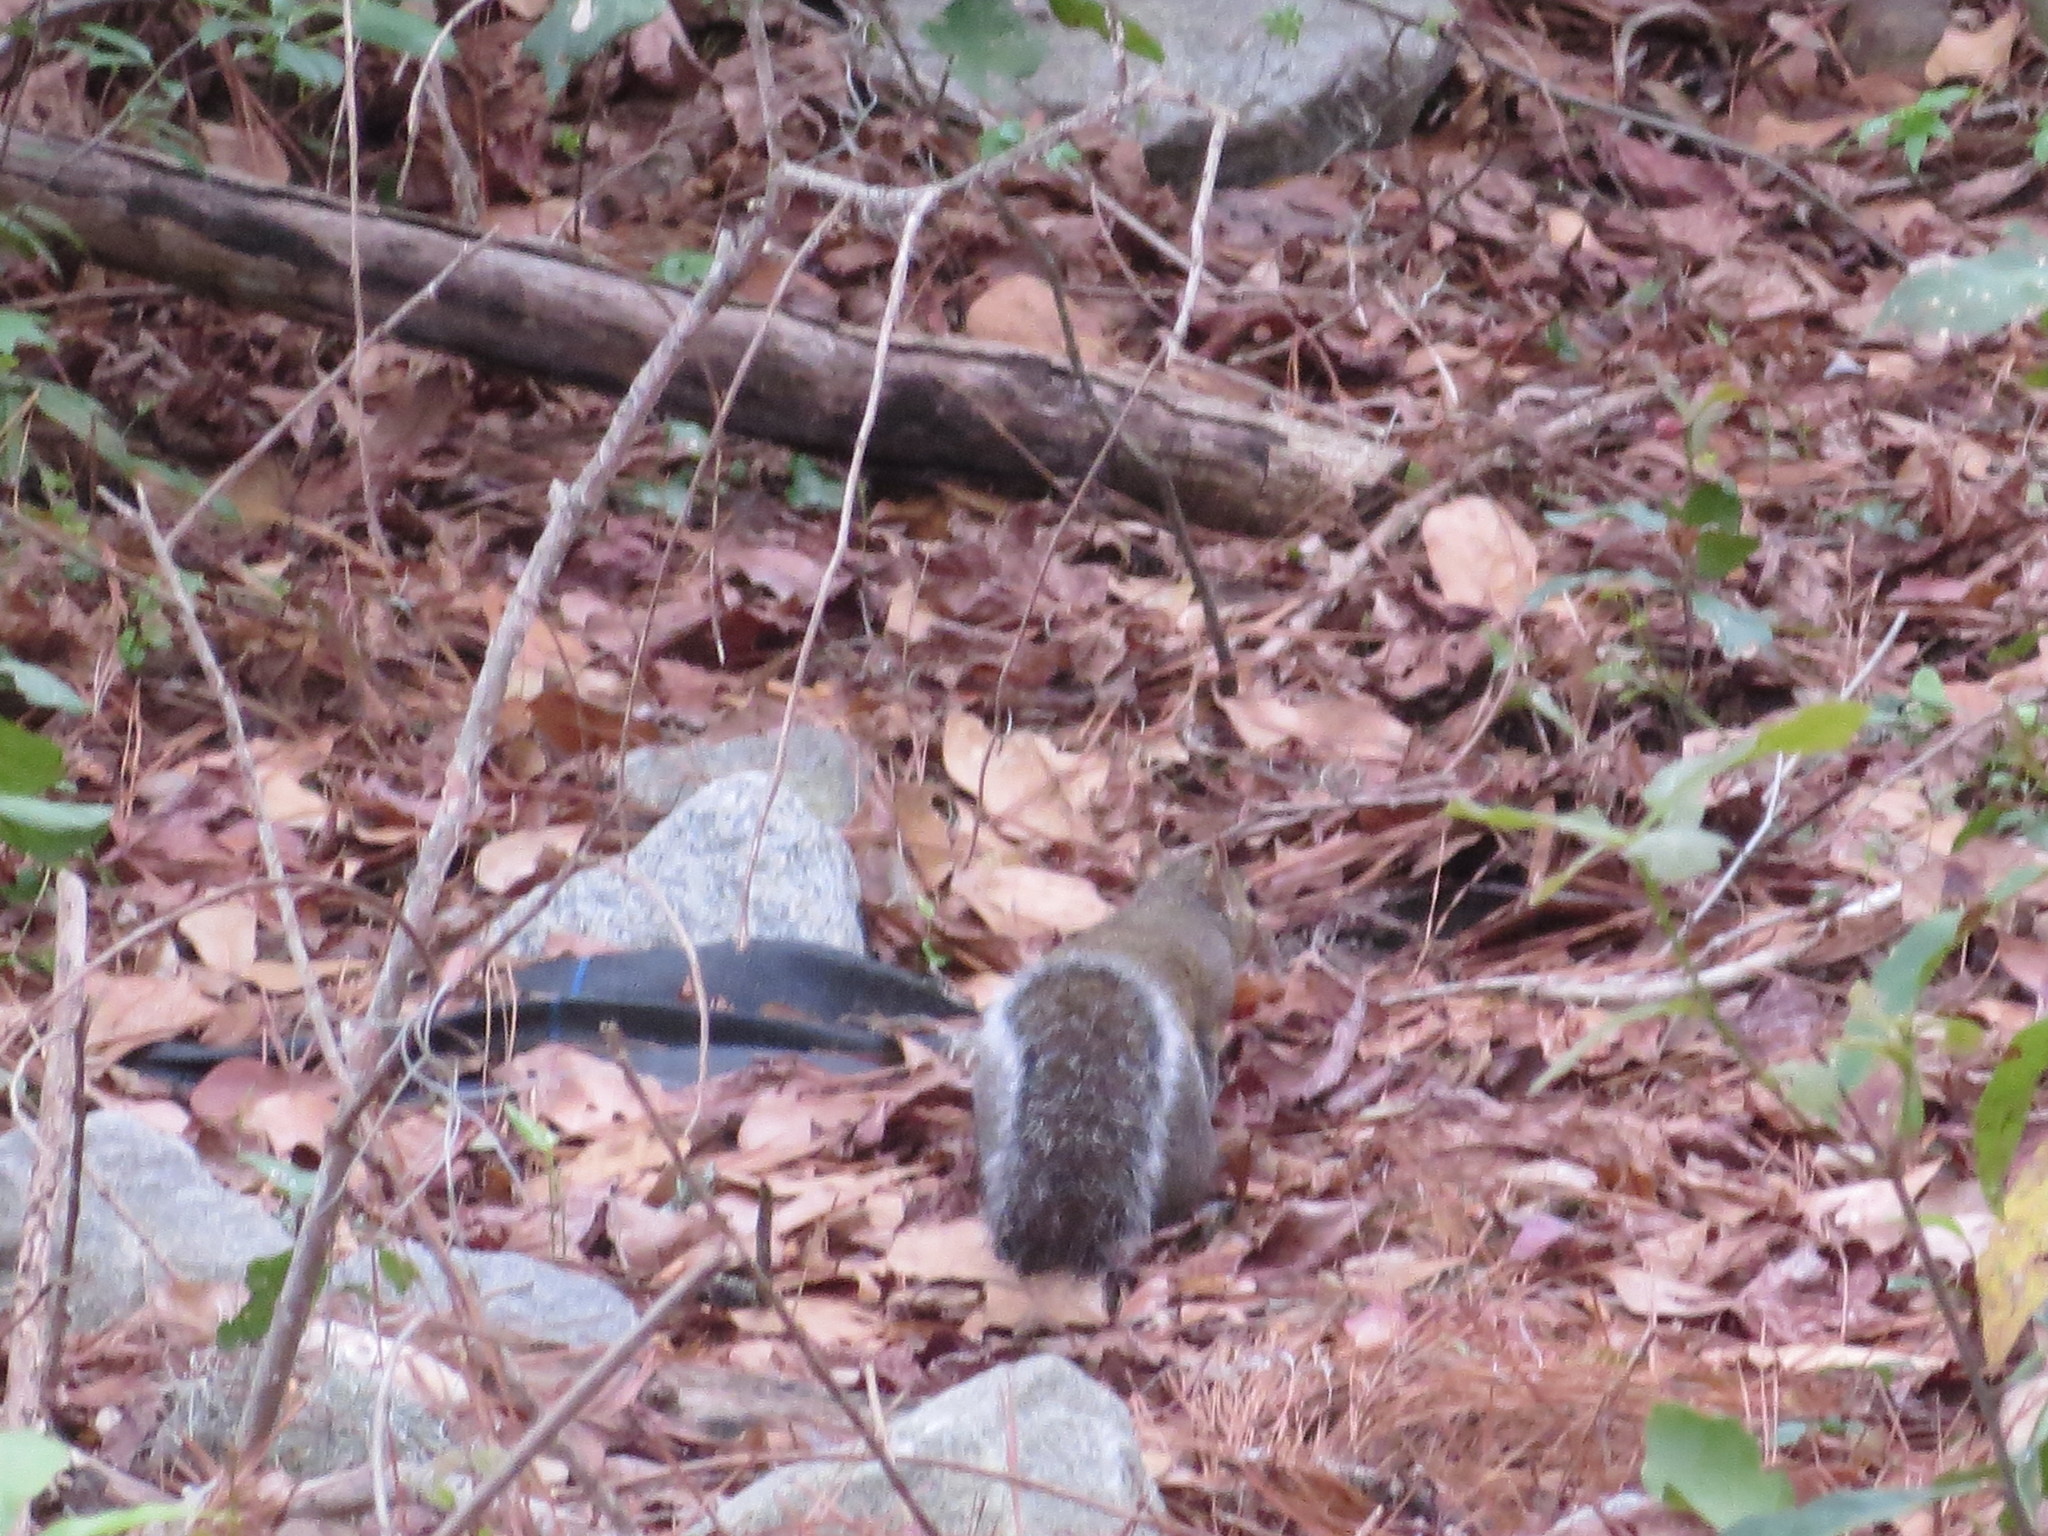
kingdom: Animalia
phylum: Chordata
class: Mammalia
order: Rodentia
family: Sciuridae
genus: Sciurus
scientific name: Sciurus carolinensis
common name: Eastern gray squirrel
